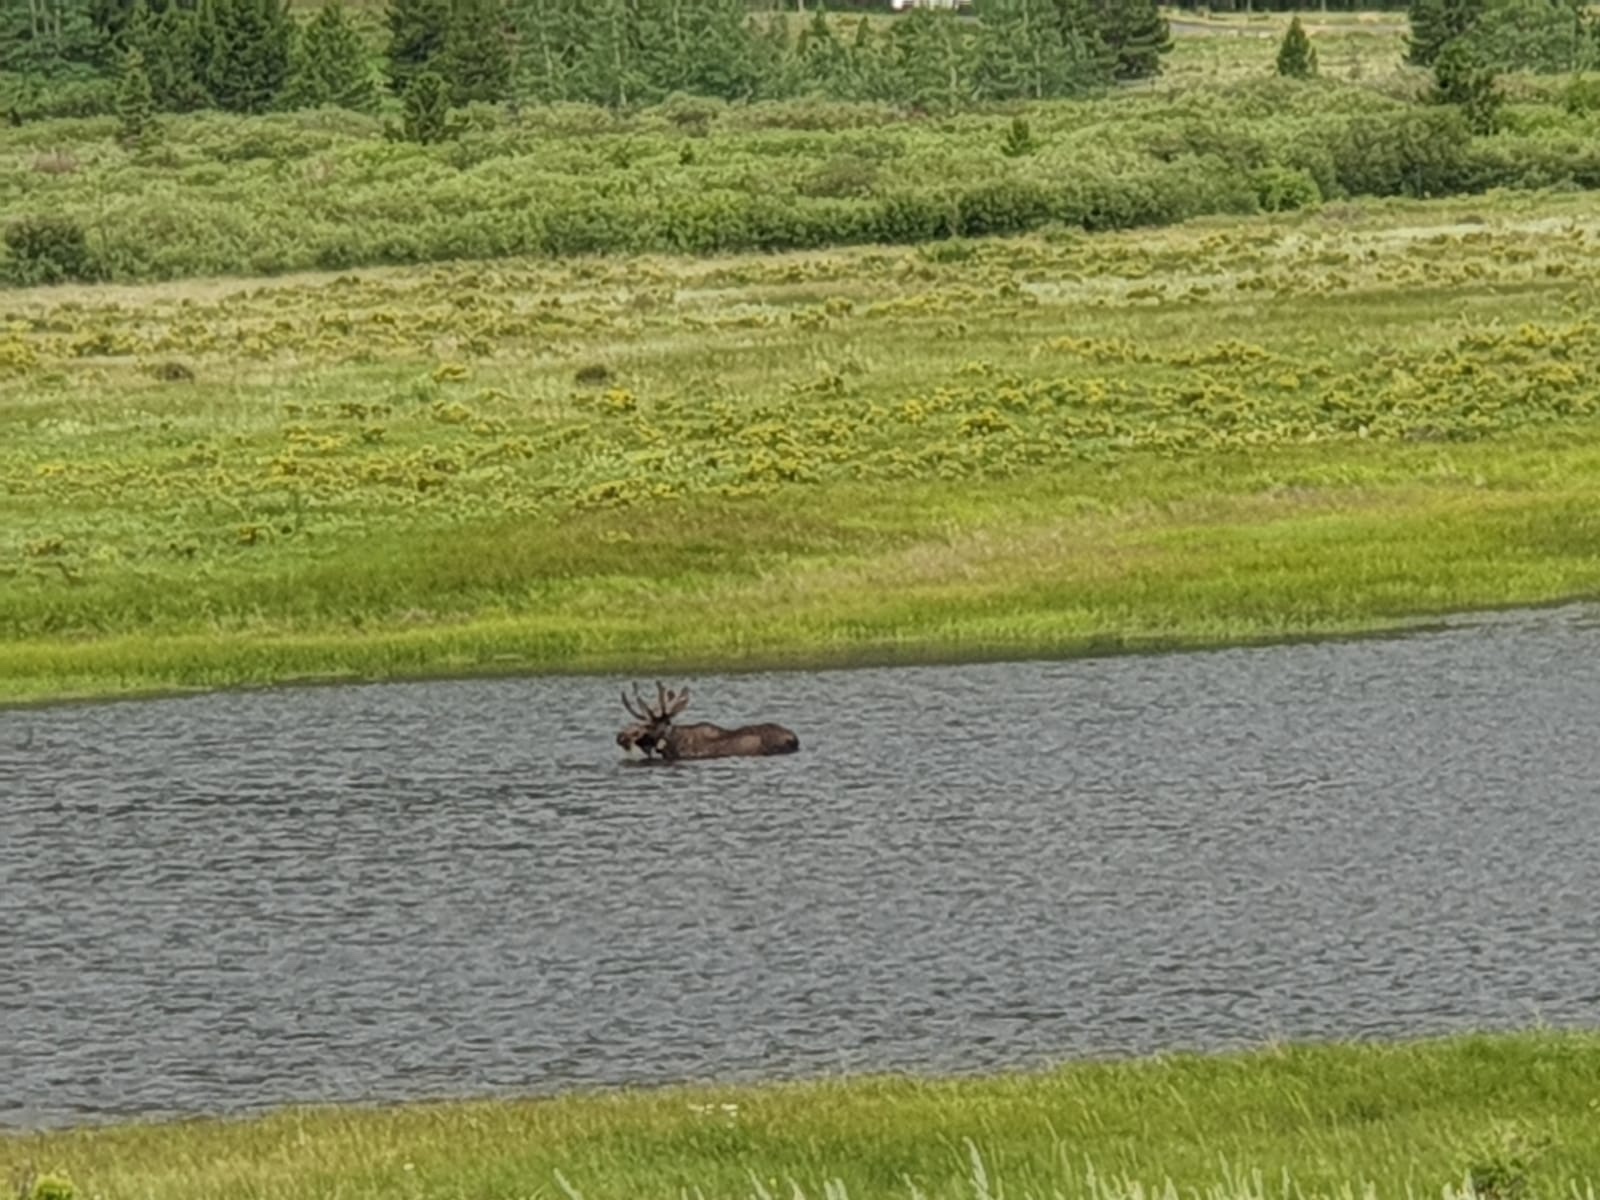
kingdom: Animalia
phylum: Chordata
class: Mammalia
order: Artiodactyla
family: Cervidae
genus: Alces
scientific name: Alces alces
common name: Moose
